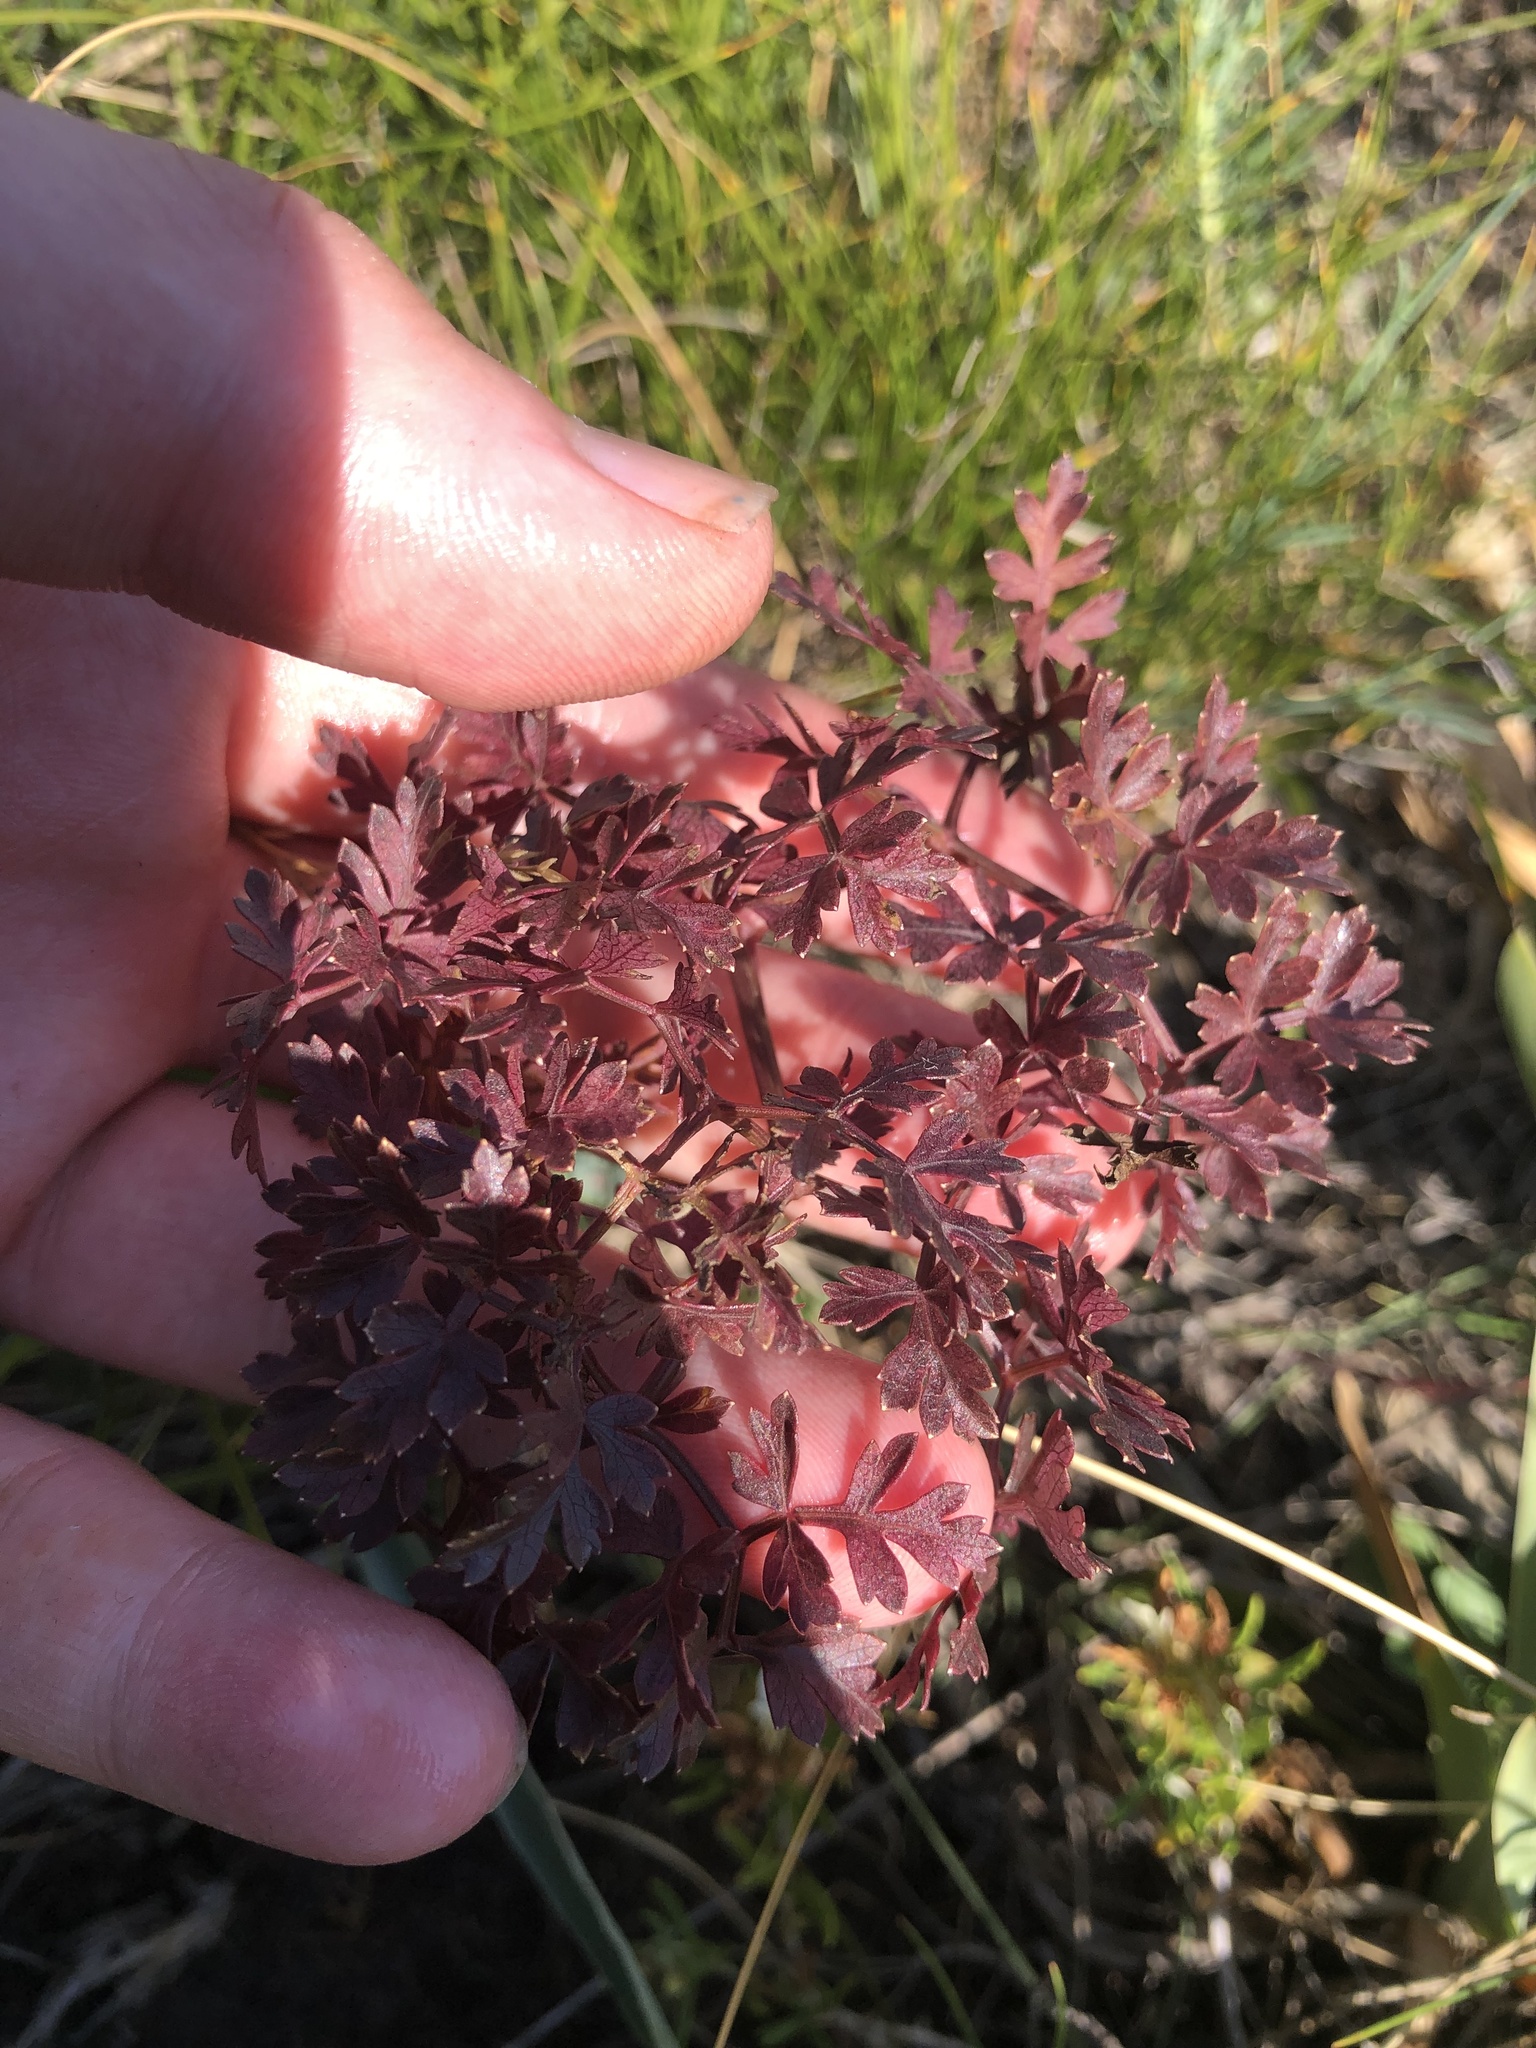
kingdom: Plantae
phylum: Tracheophyta
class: Magnoliopsida
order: Apiales
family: Apiaceae
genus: Oreoselinum
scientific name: Oreoselinum nigrum
